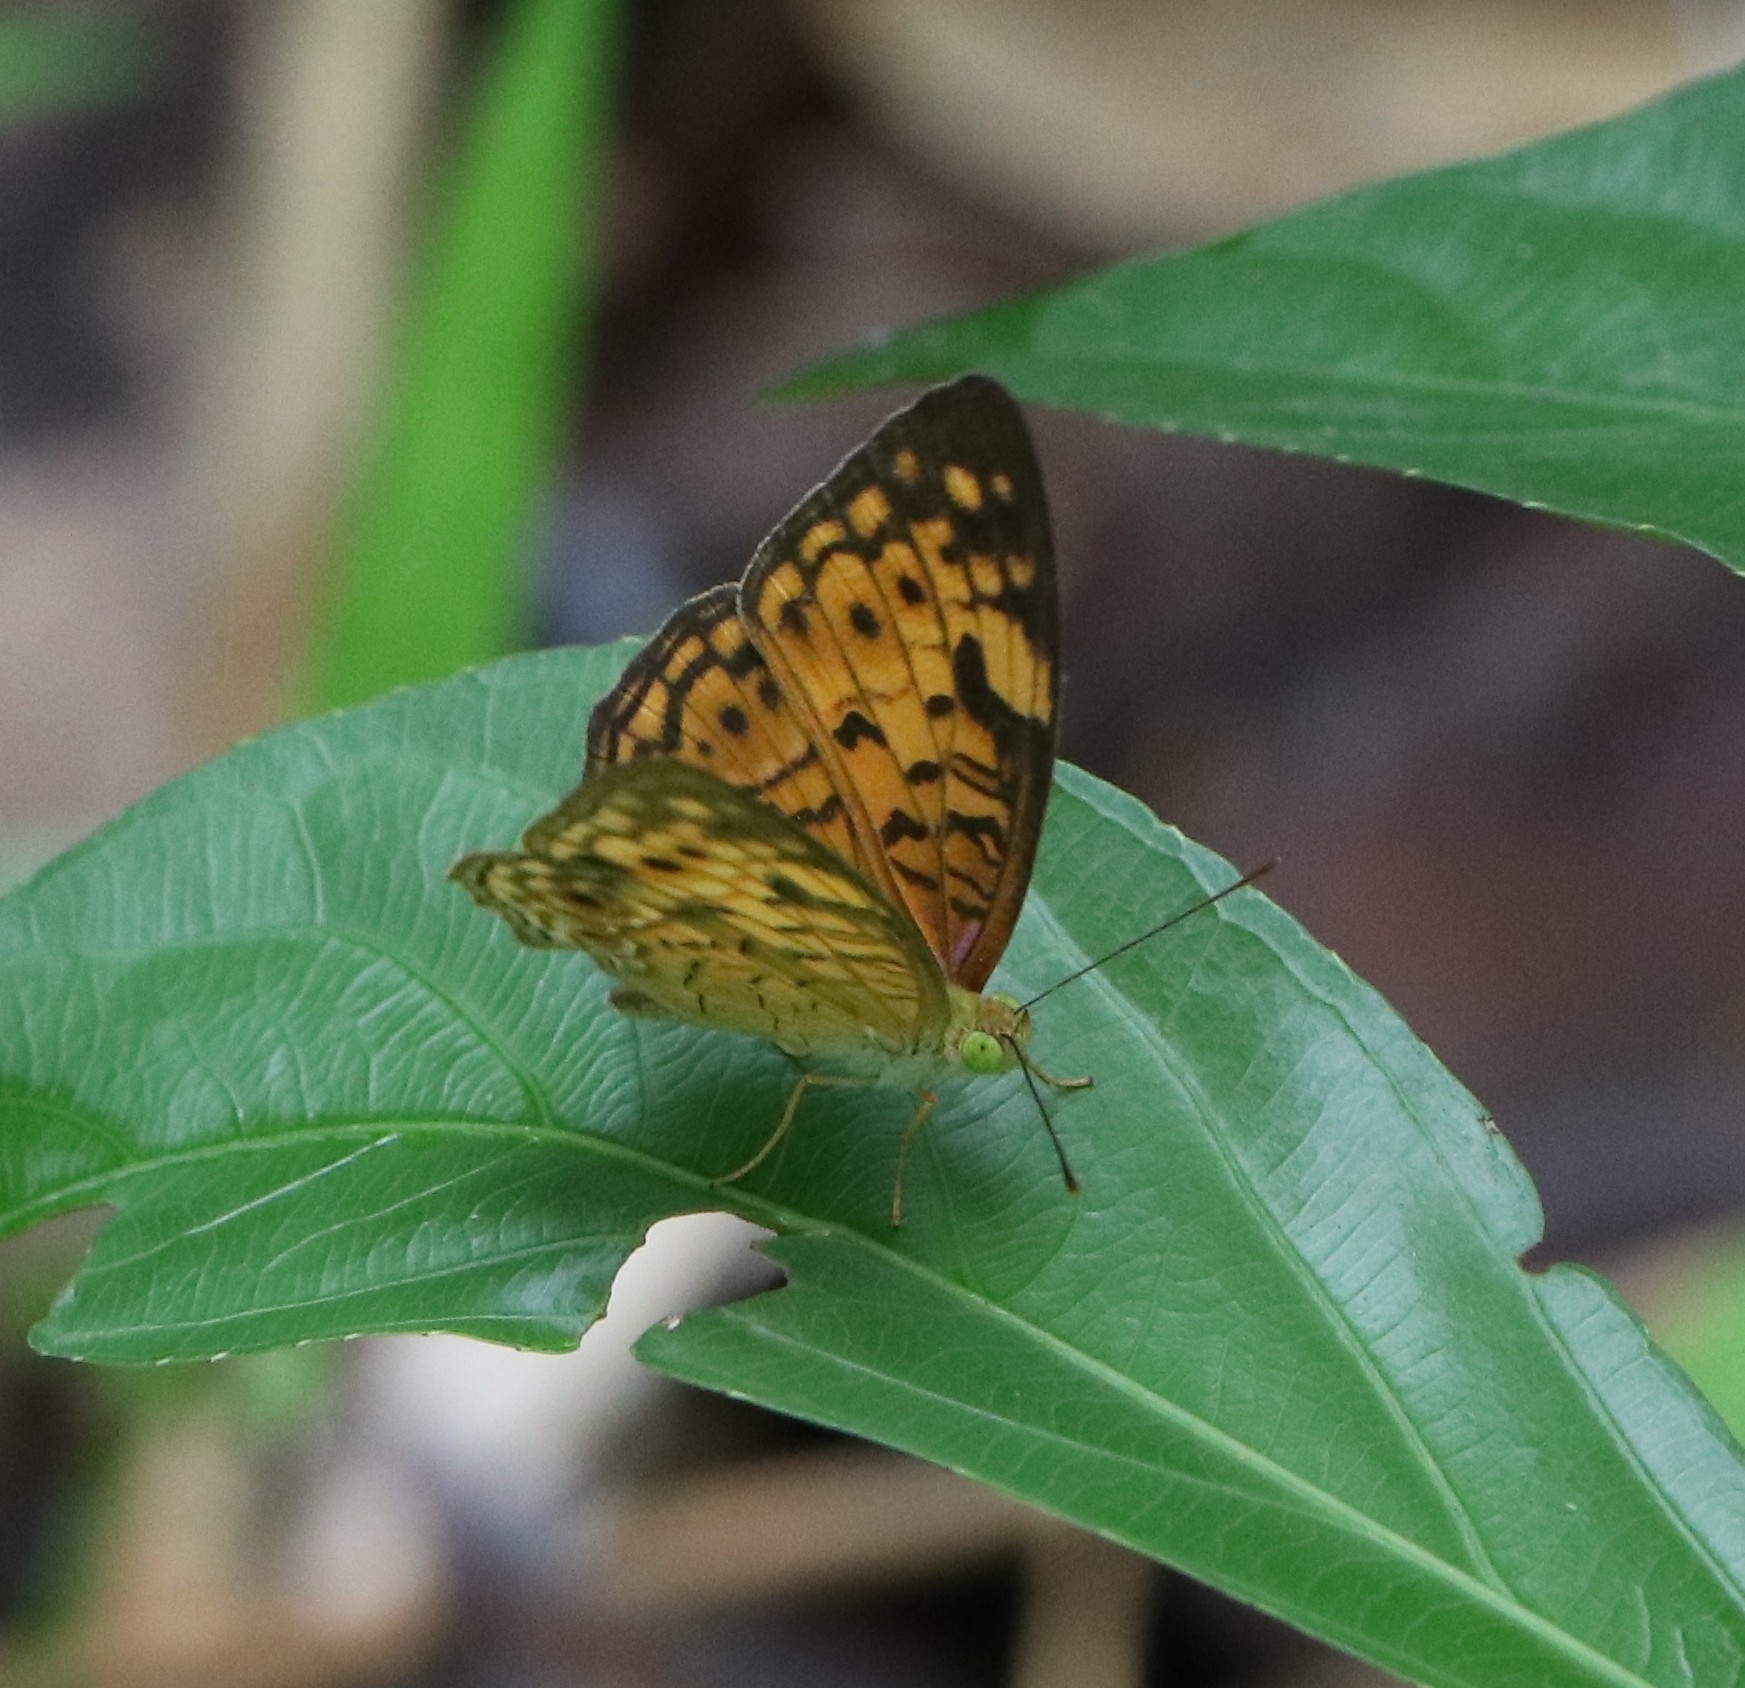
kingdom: Animalia
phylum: Arthropoda
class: Insecta
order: Lepidoptera
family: Nymphalidae
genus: Phalanta
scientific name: Phalanta alcippe
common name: Small leopard
